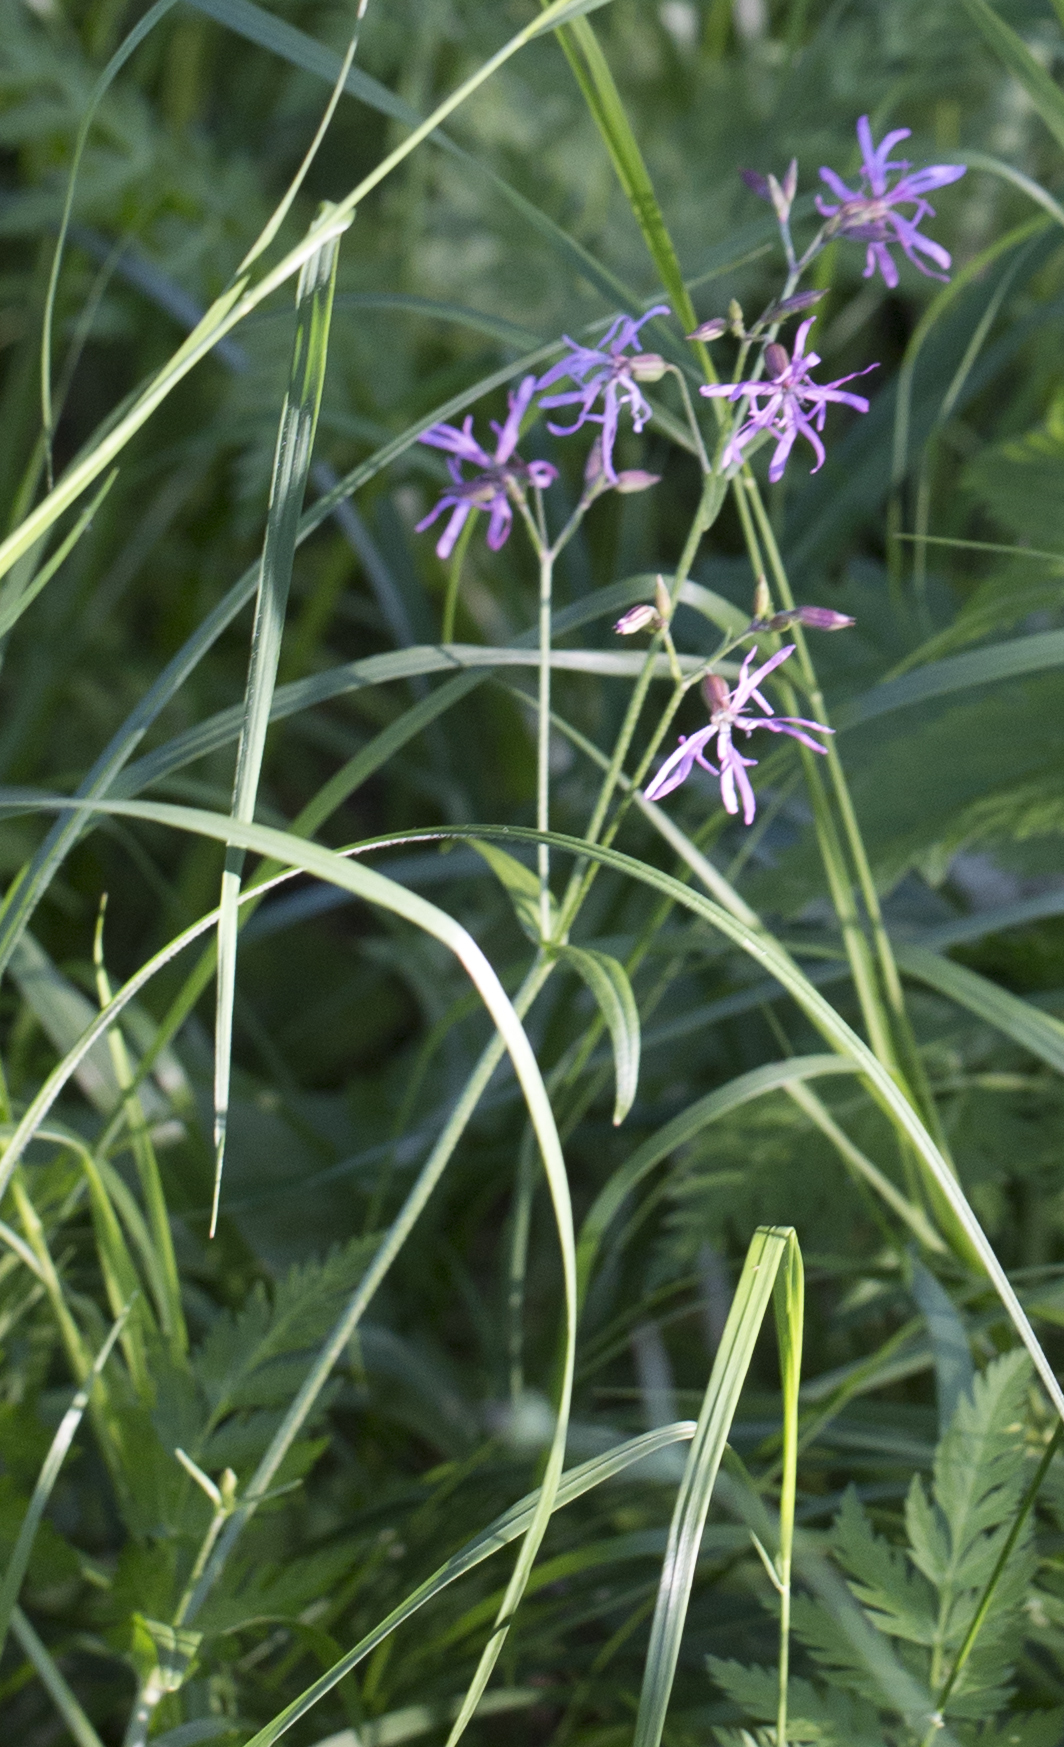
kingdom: Plantae
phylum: Tracheophyta
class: Magnoliopsida
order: Caryophyllales
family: Caryophyllaceae
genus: Silene
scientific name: Silene flos-cuculi
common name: Ragged-robin
